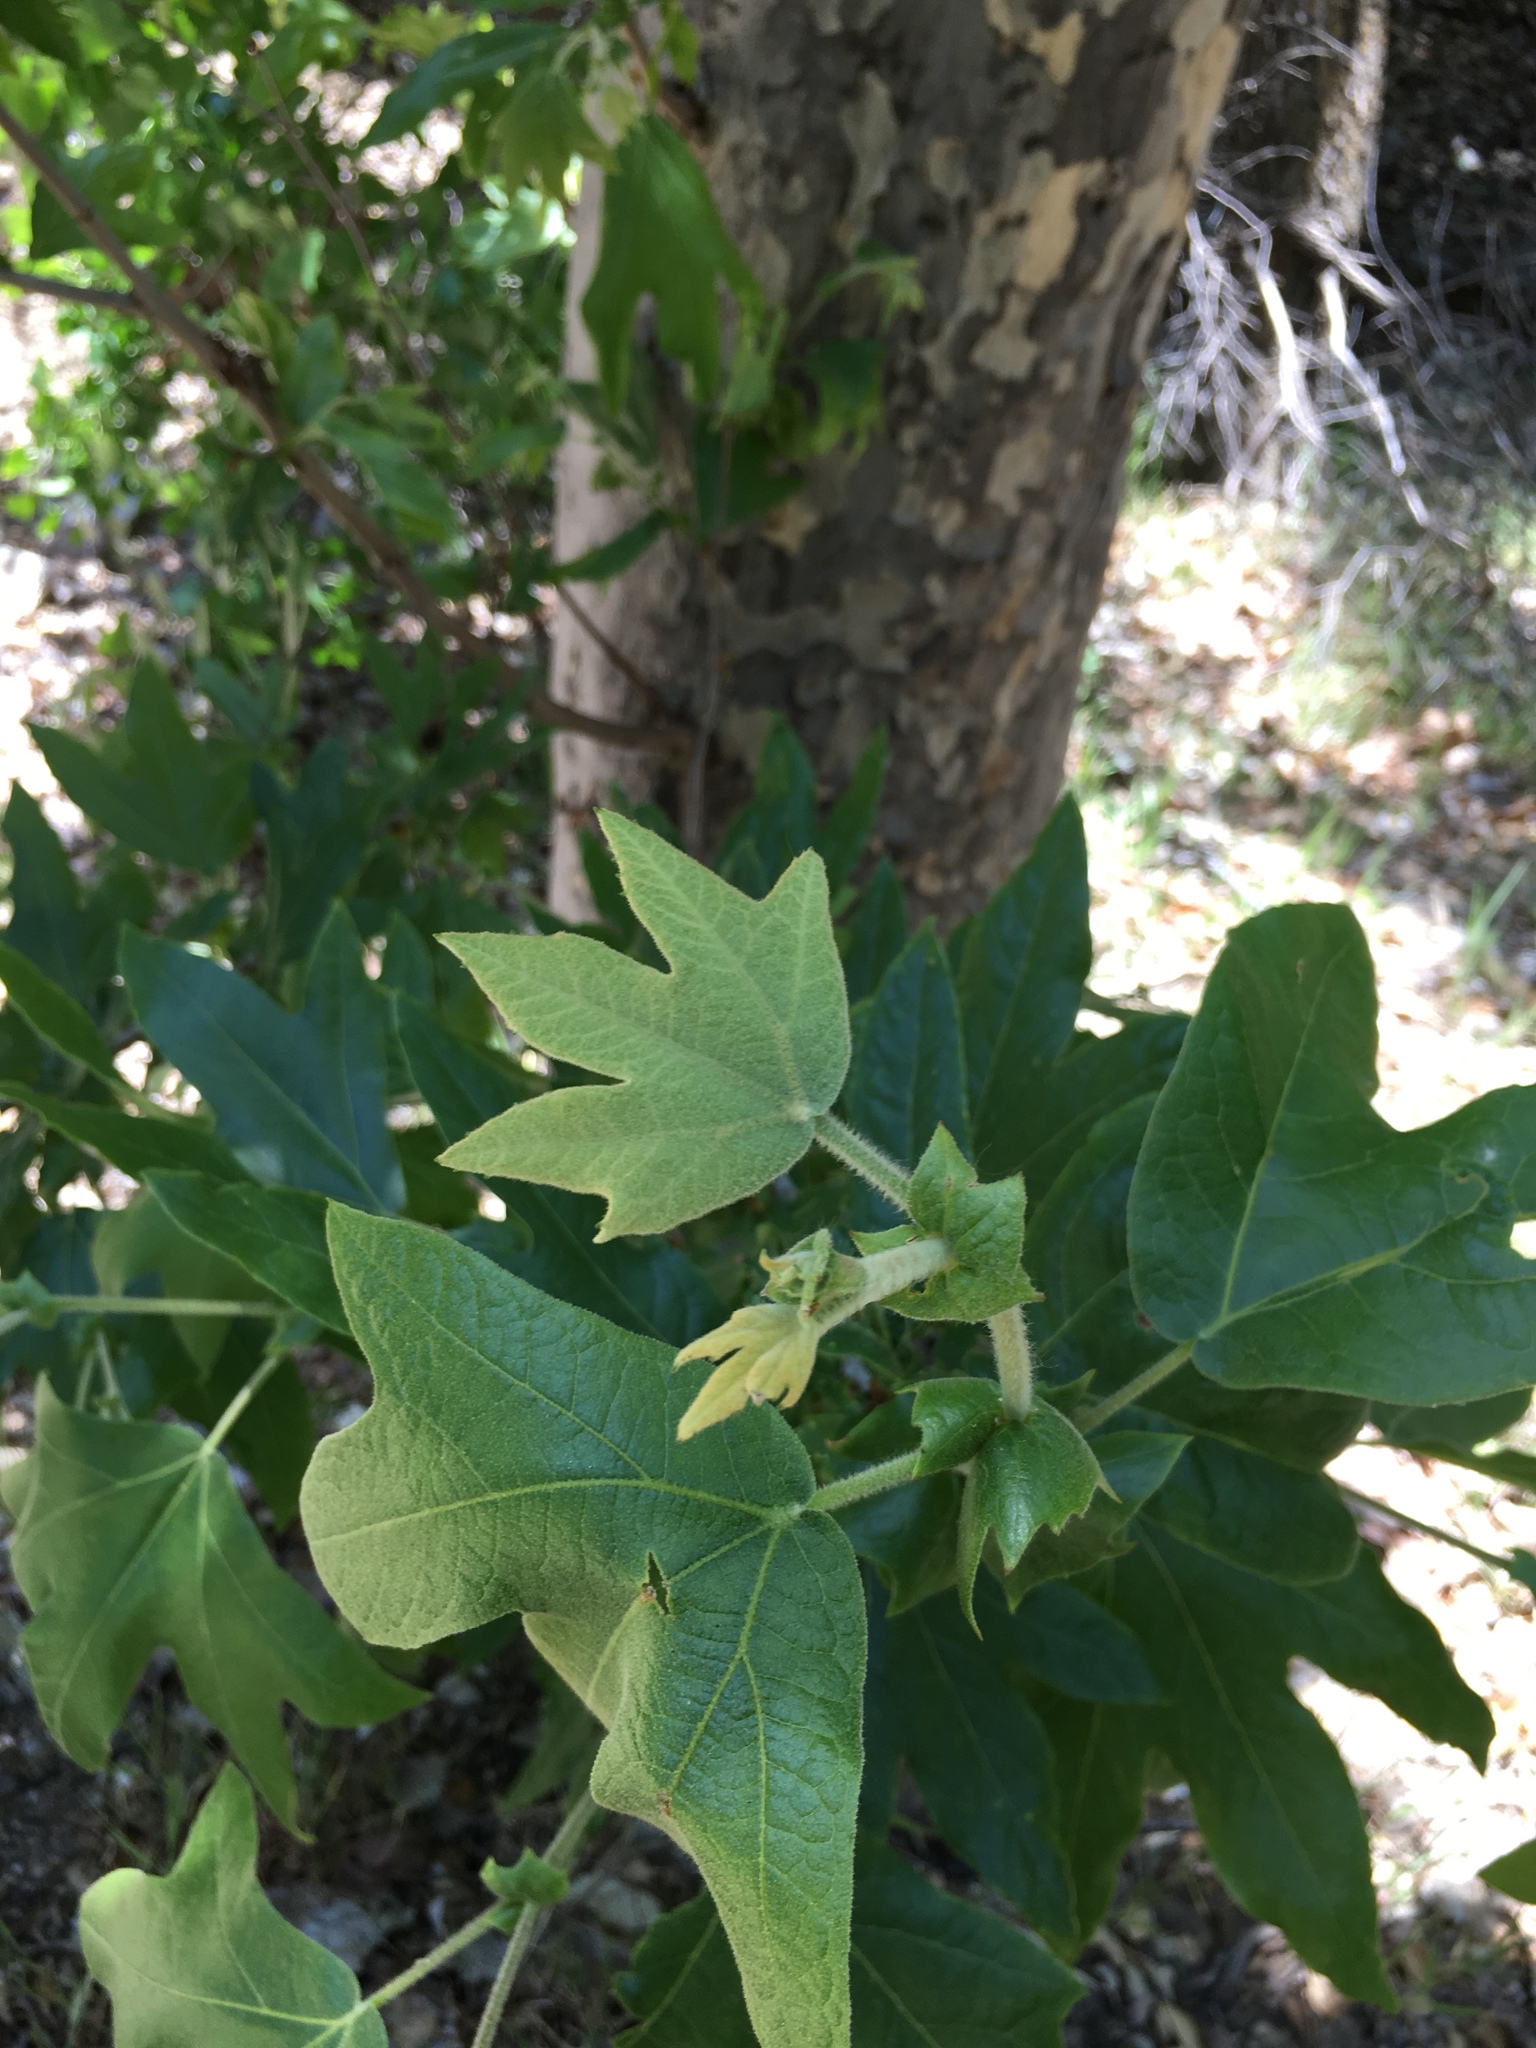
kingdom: Plantae
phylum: Tracheophyta
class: Magnoliopsida
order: Proteales
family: Platanaceae
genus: Platanus
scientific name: Platanus racemosa
